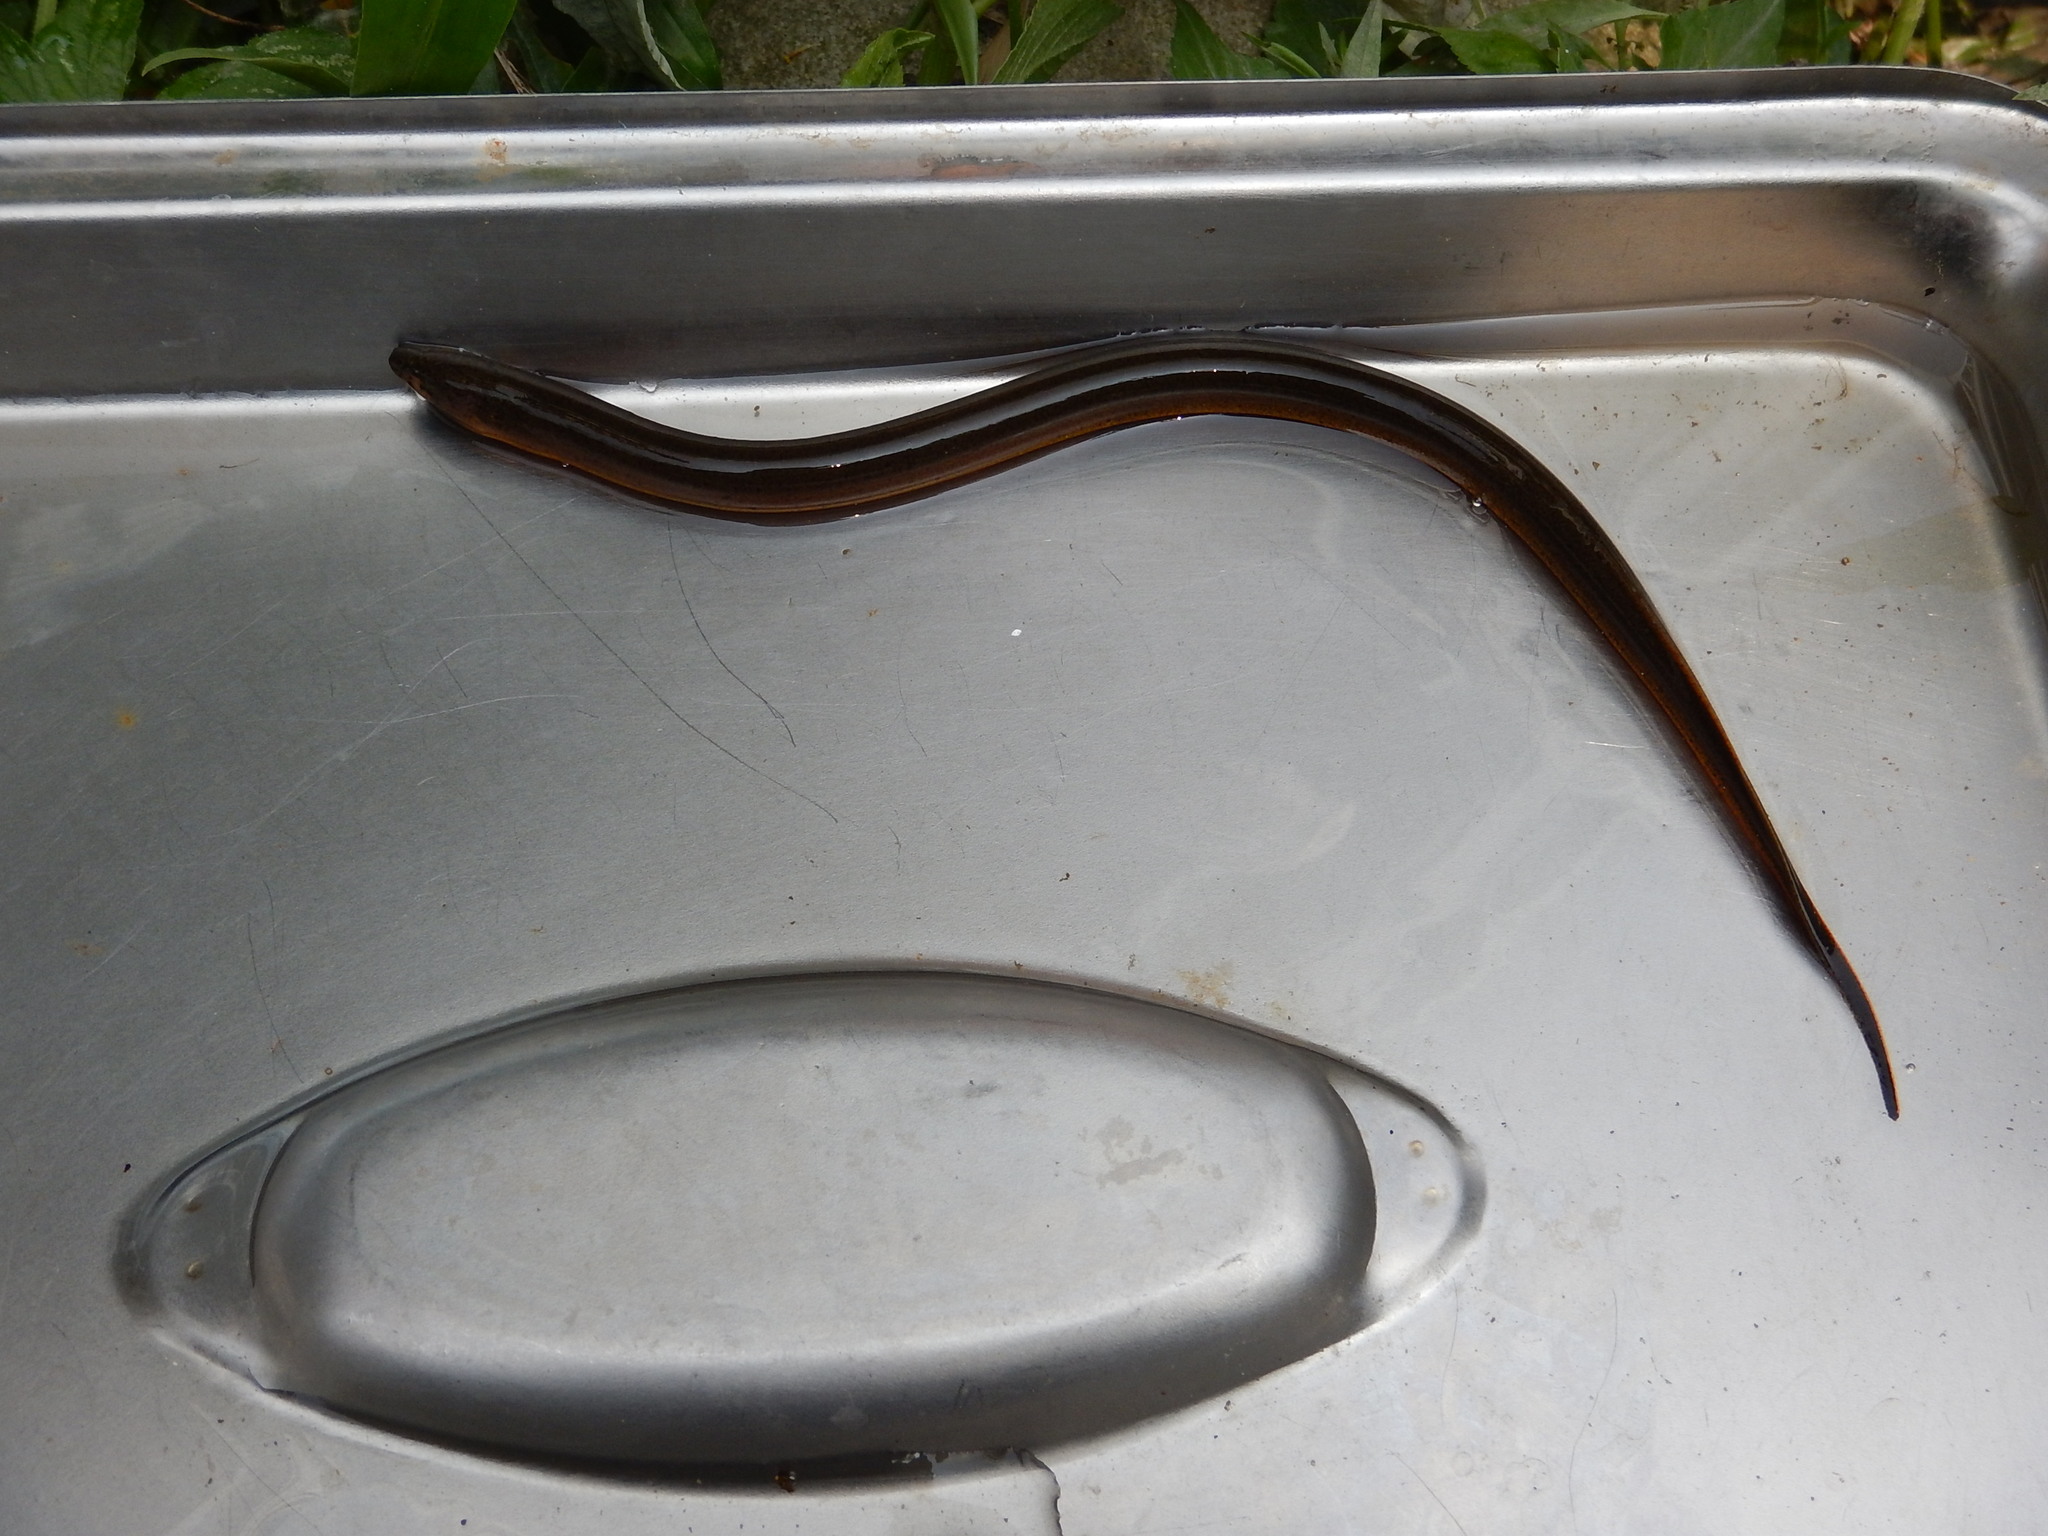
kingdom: Animalia
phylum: Chordata
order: Synbranchiformes
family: Synbranchidae
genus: Monopterus
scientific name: Monopterus albus
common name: Asian swamp eel
